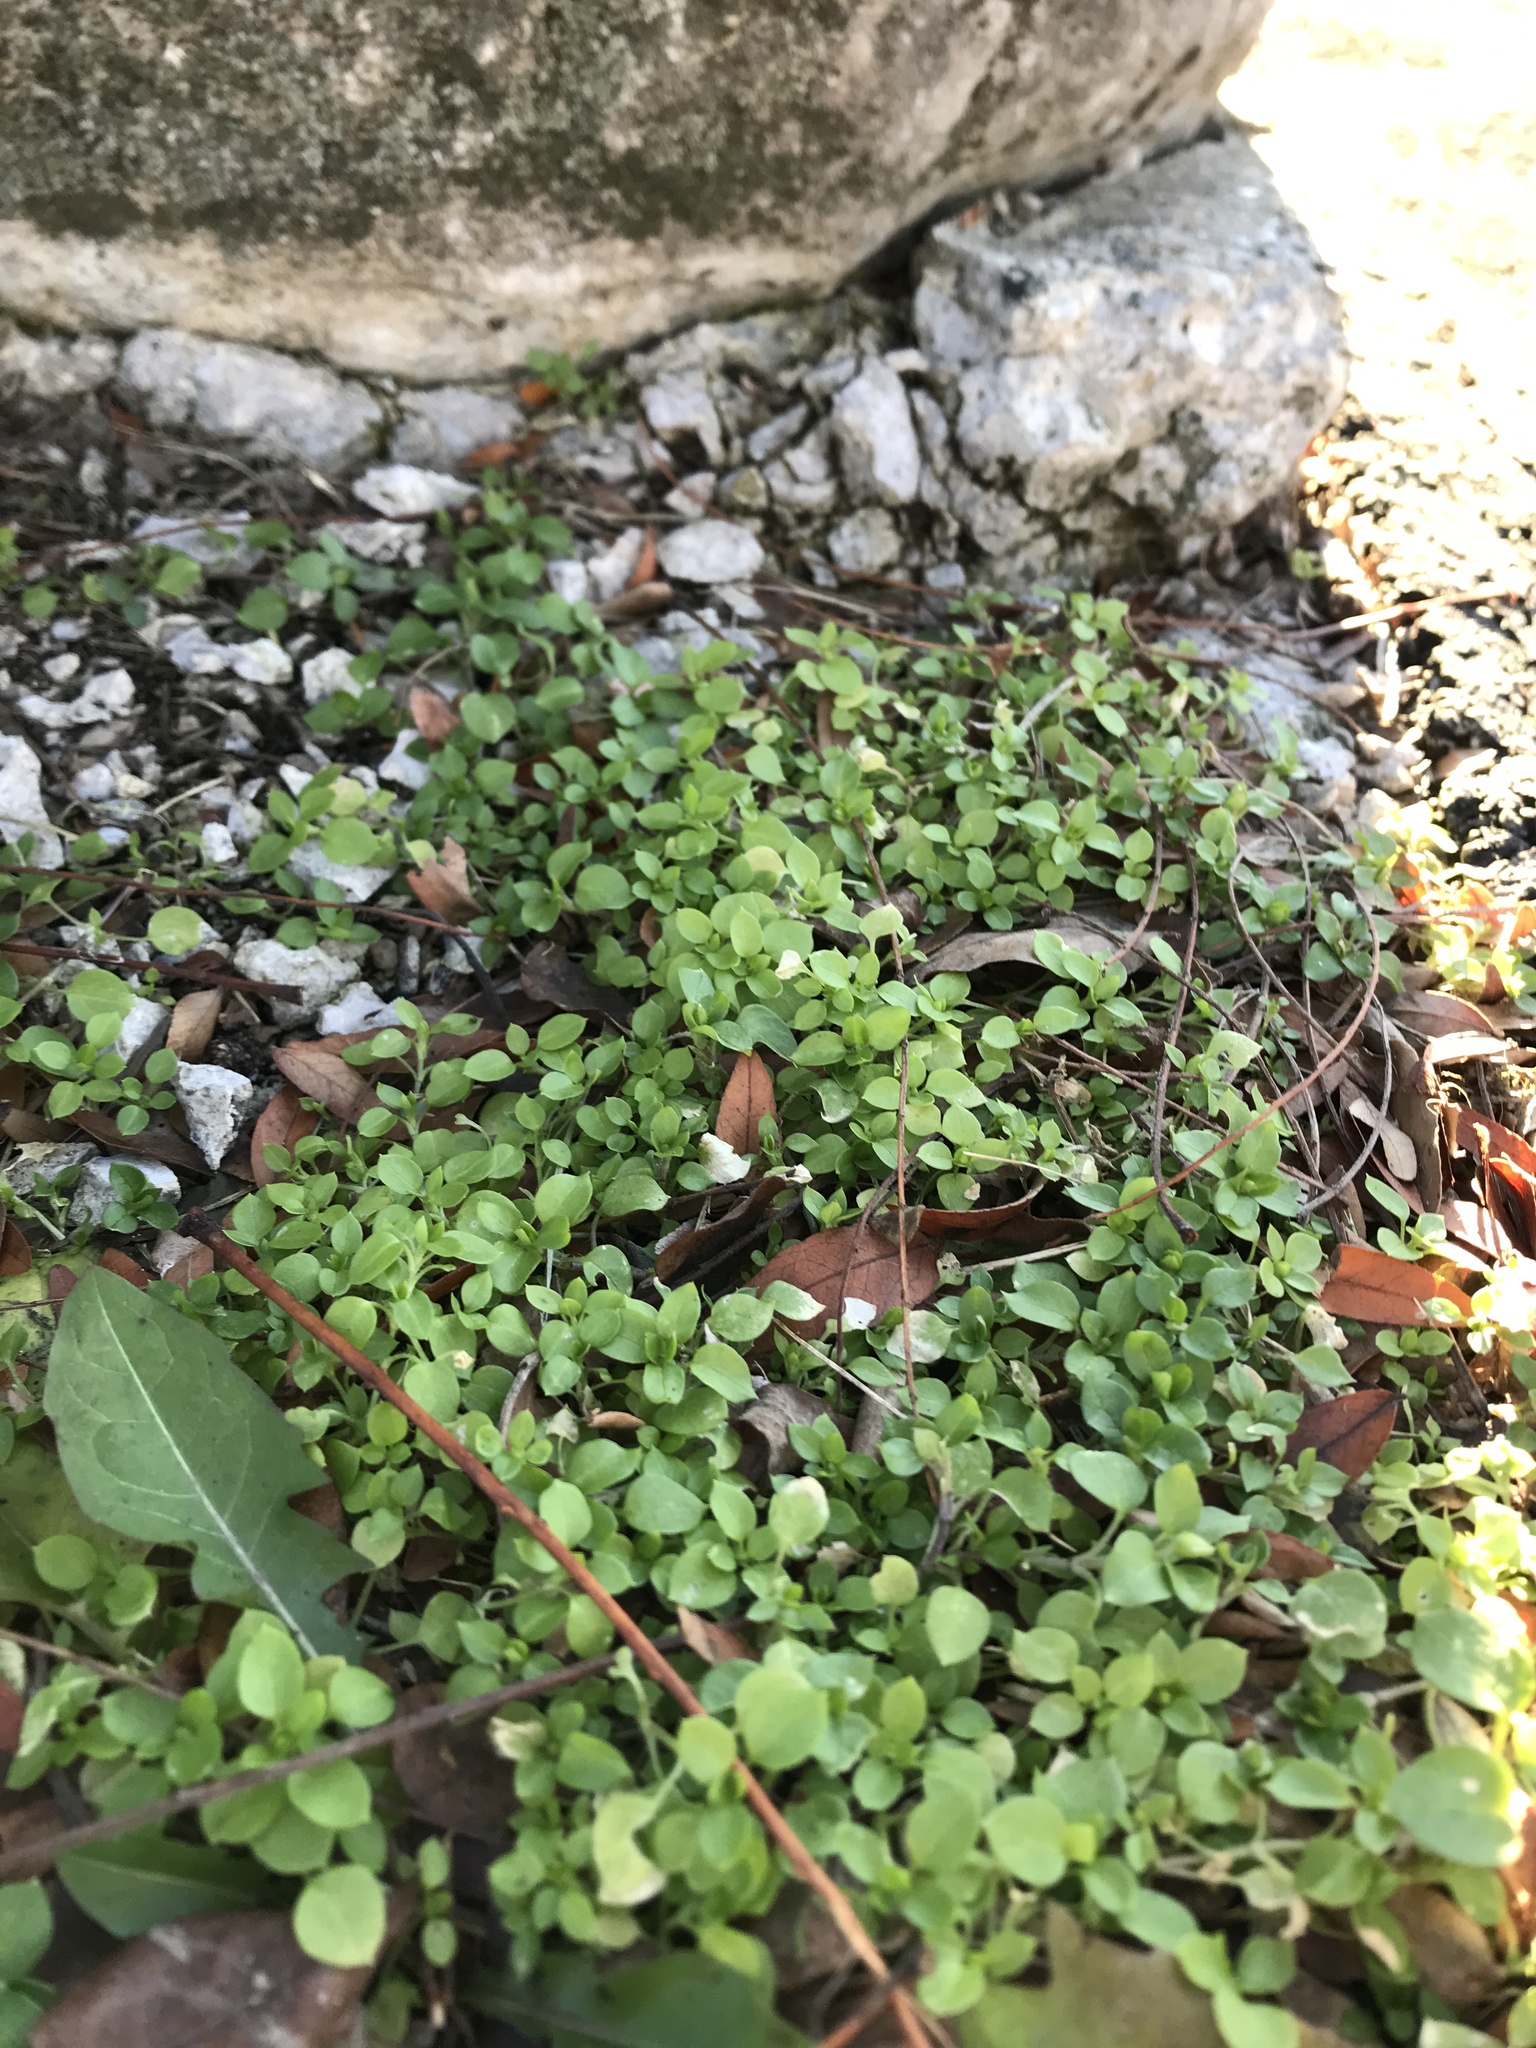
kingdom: Plantae
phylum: Tracheophyta
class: Magnoliopsida
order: Caryophyllales
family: Caryophyllaceae
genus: Stellaria
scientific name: Stellaria media
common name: Common chickweed
